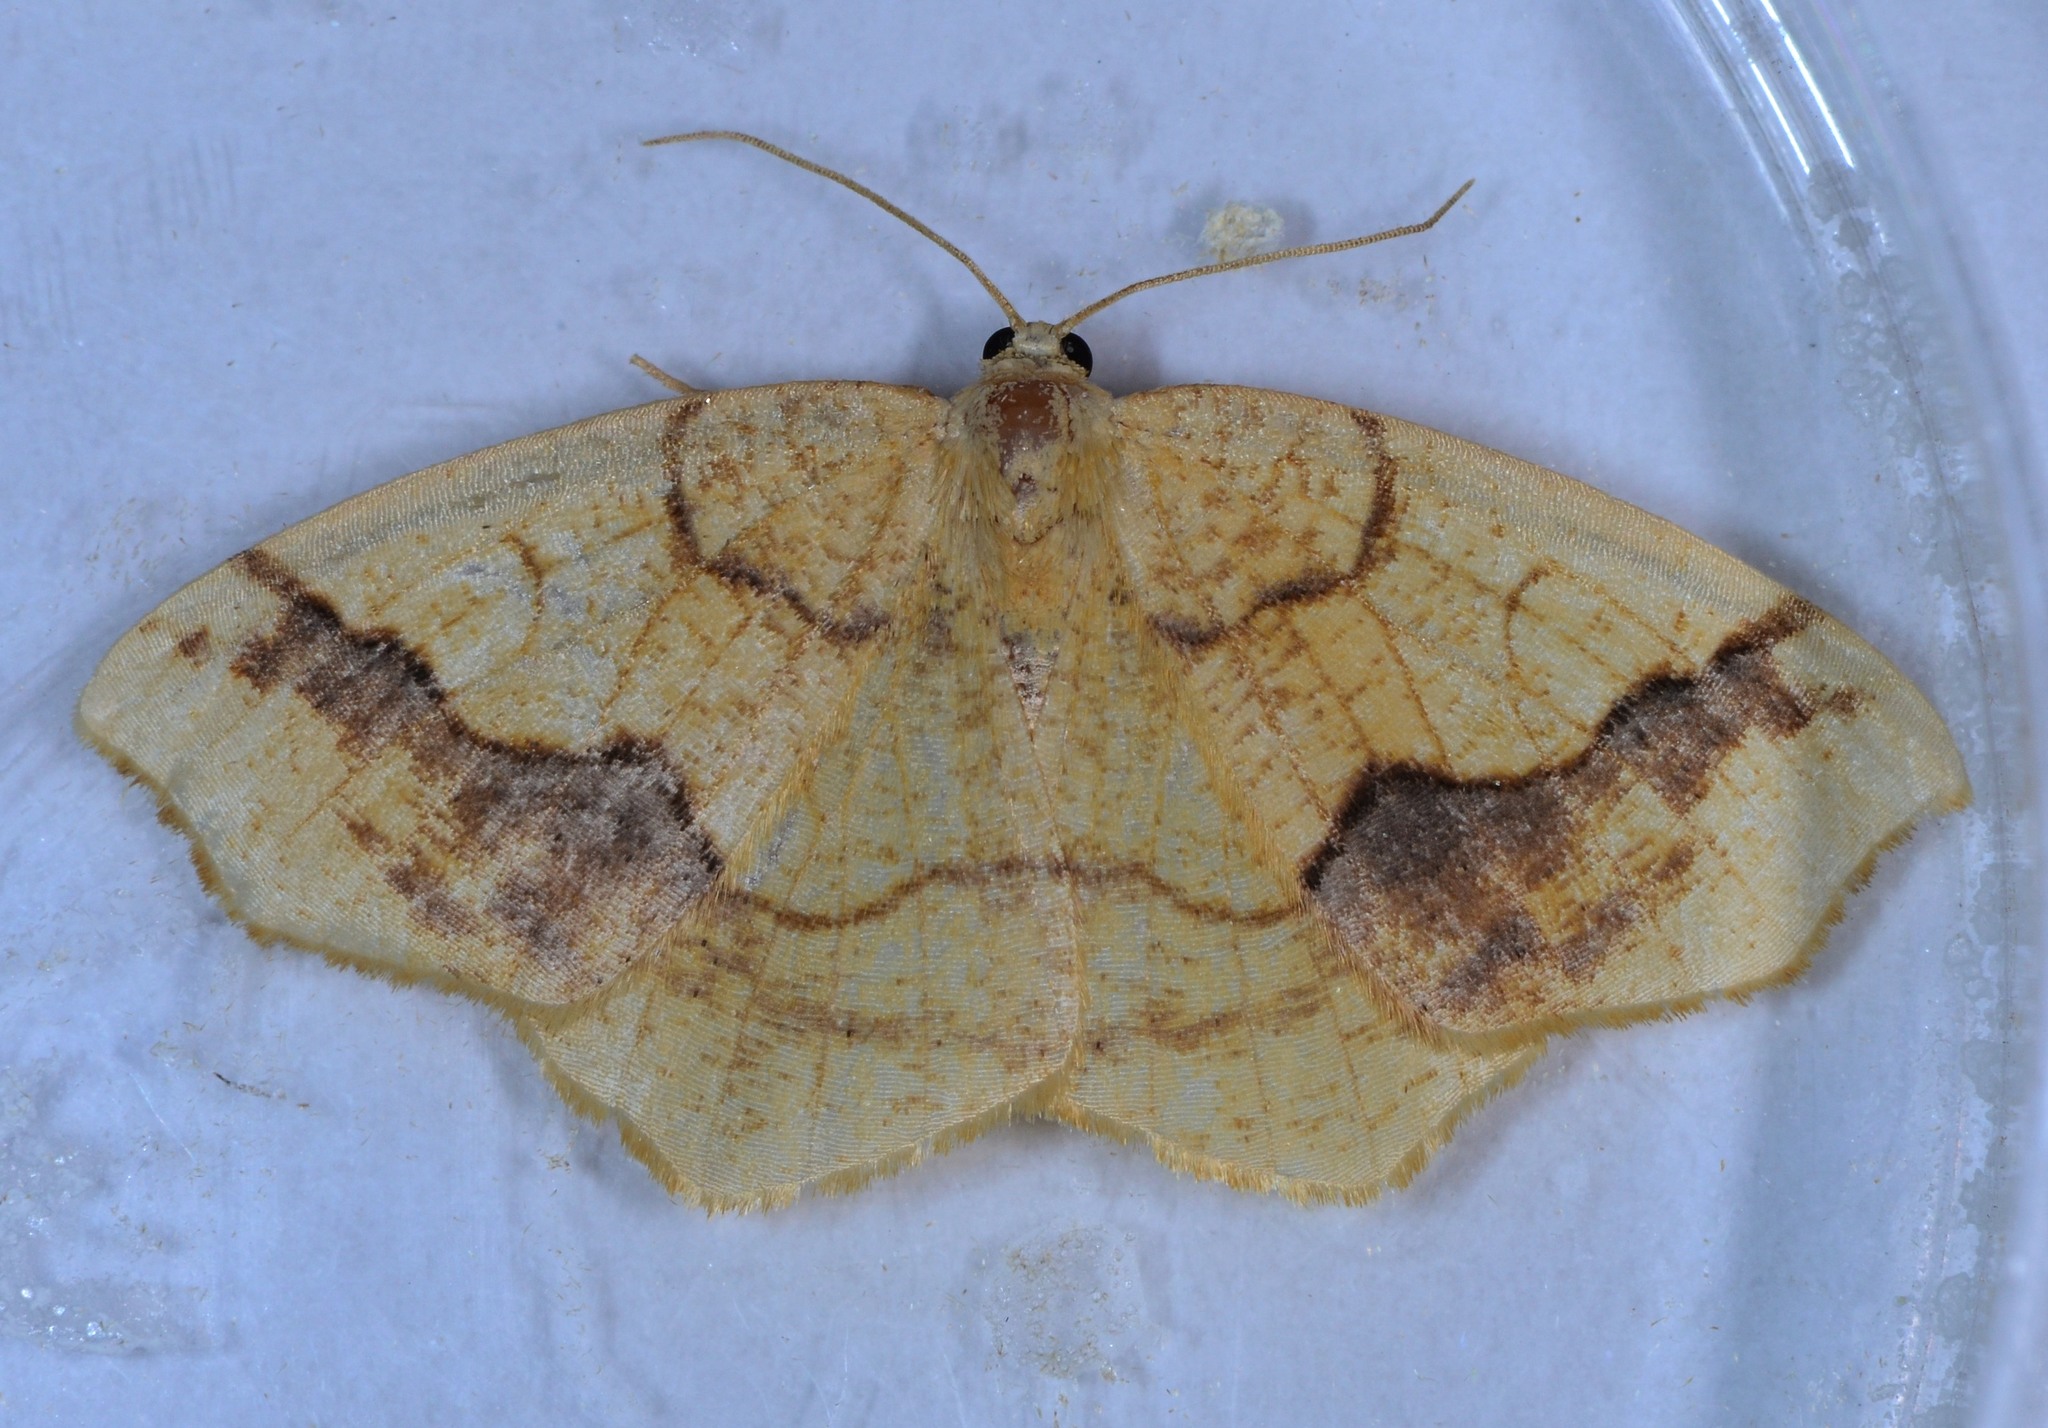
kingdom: Animalia
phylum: Arthropoda
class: Insecta
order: Lepidoptera
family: Geometridae
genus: Nematocampa
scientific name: Nematocampa brehmeata
